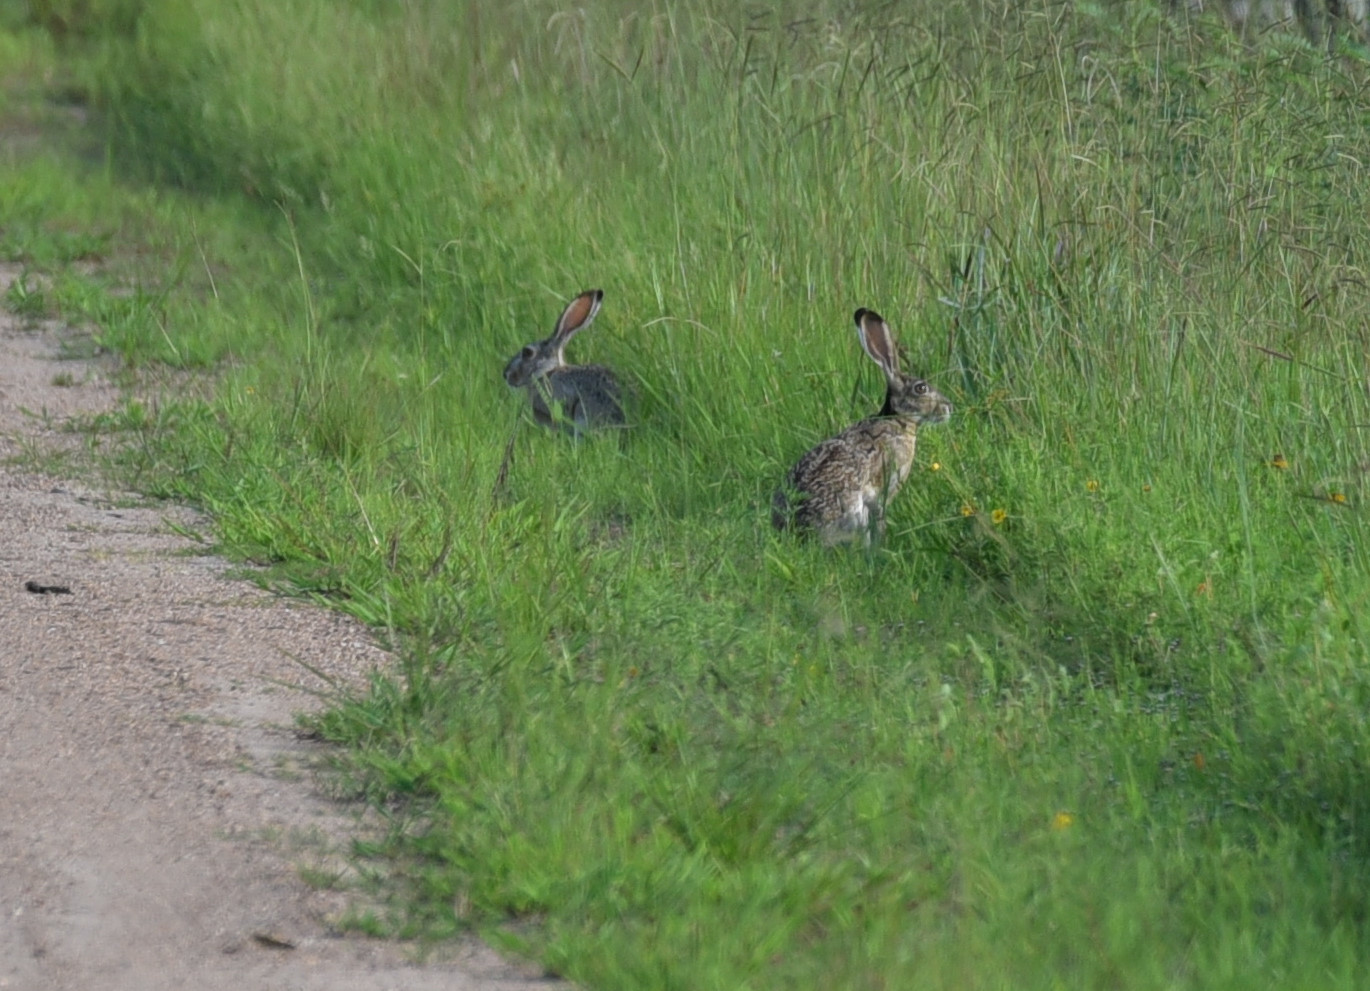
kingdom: Animalia
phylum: Chordata
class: Mammalia
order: Lagomorpha
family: Leporidae
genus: Lepus
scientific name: Lepus californicus
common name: Black-tailed jackrabbit
